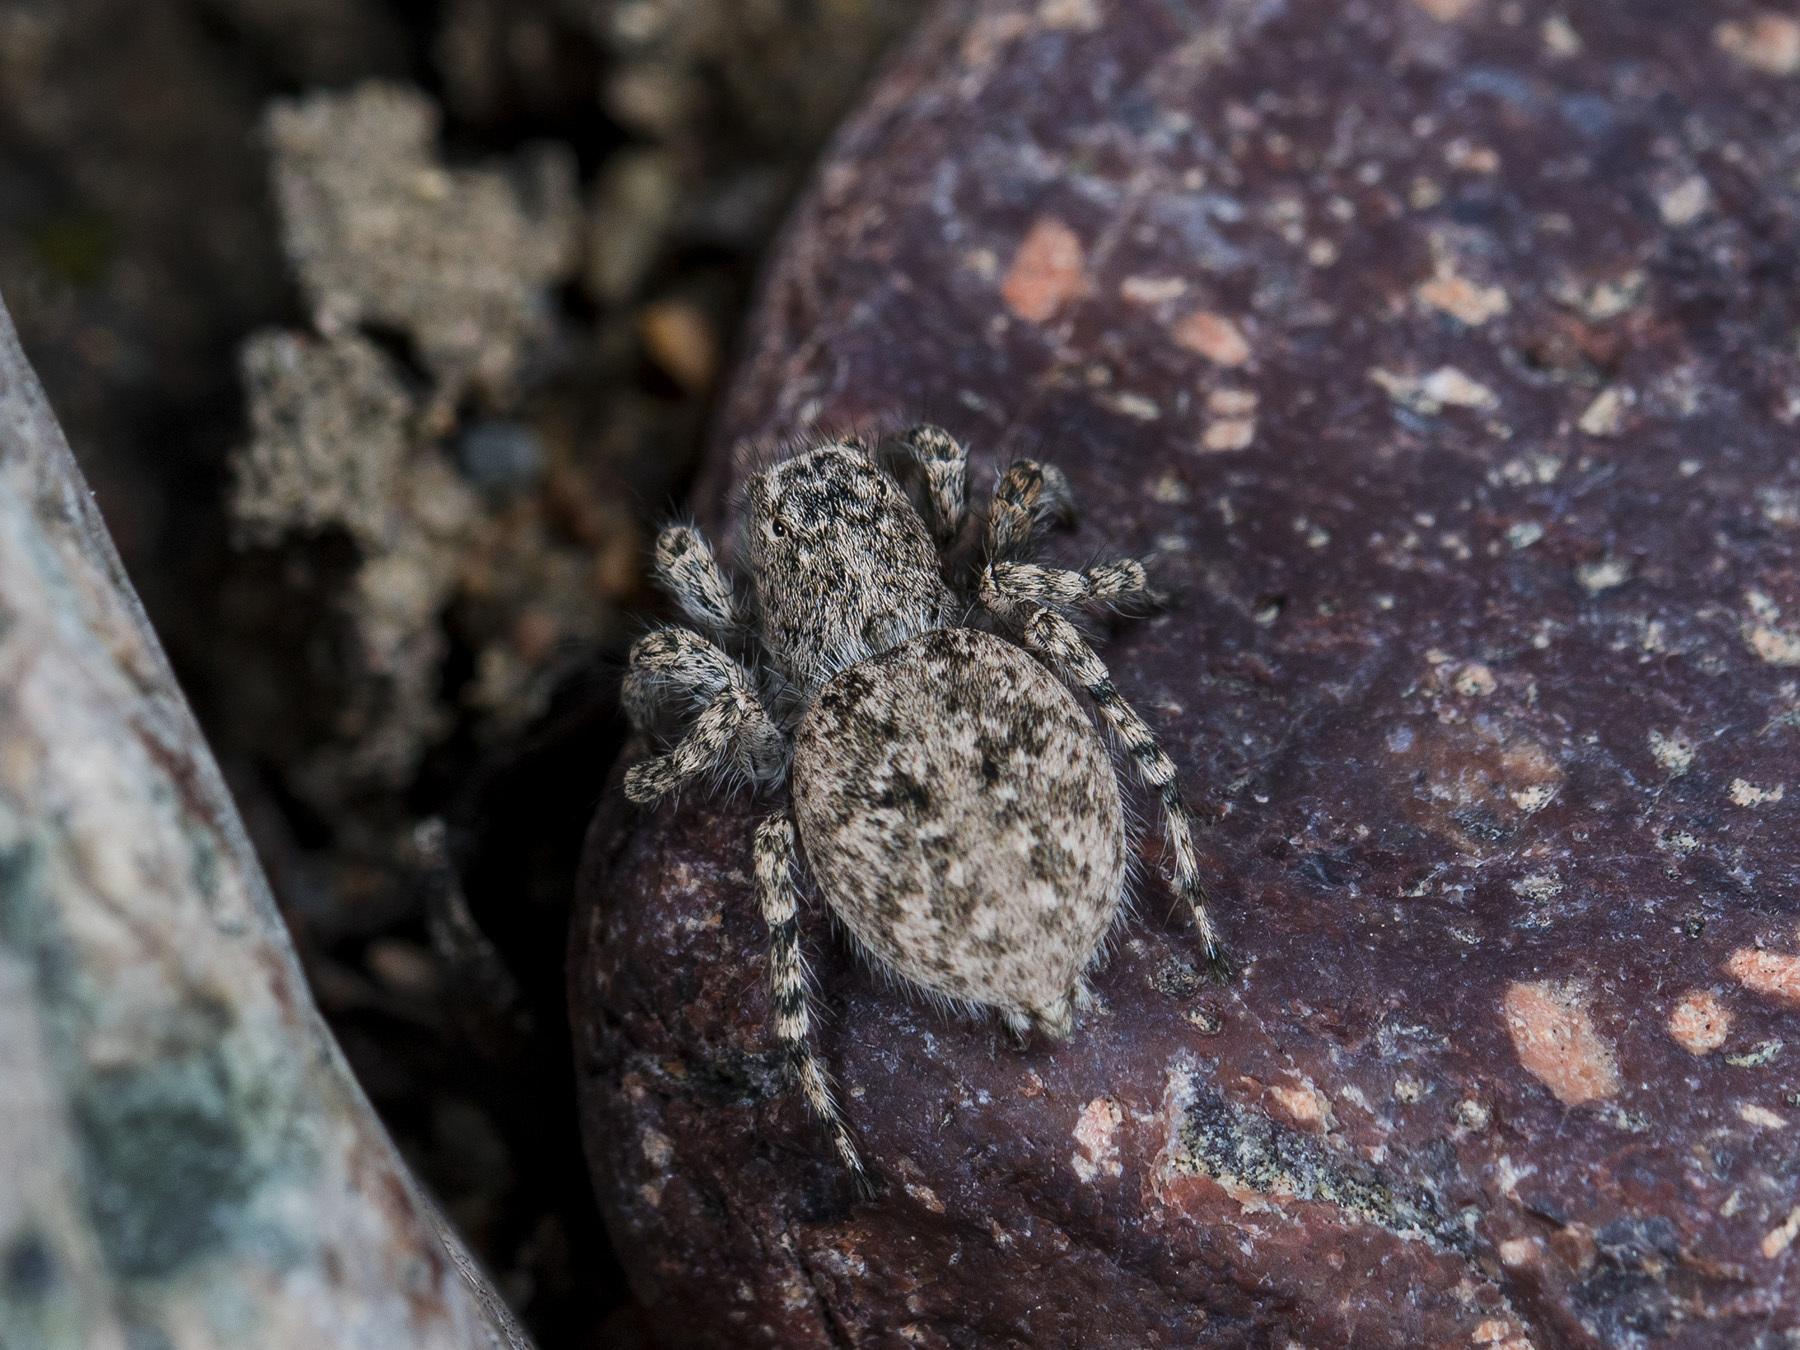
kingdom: Animalia
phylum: Arthropoda
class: Arachnida
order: Araneae
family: Salticidae
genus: Aelurillus
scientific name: Aelurillus dubatolovi
